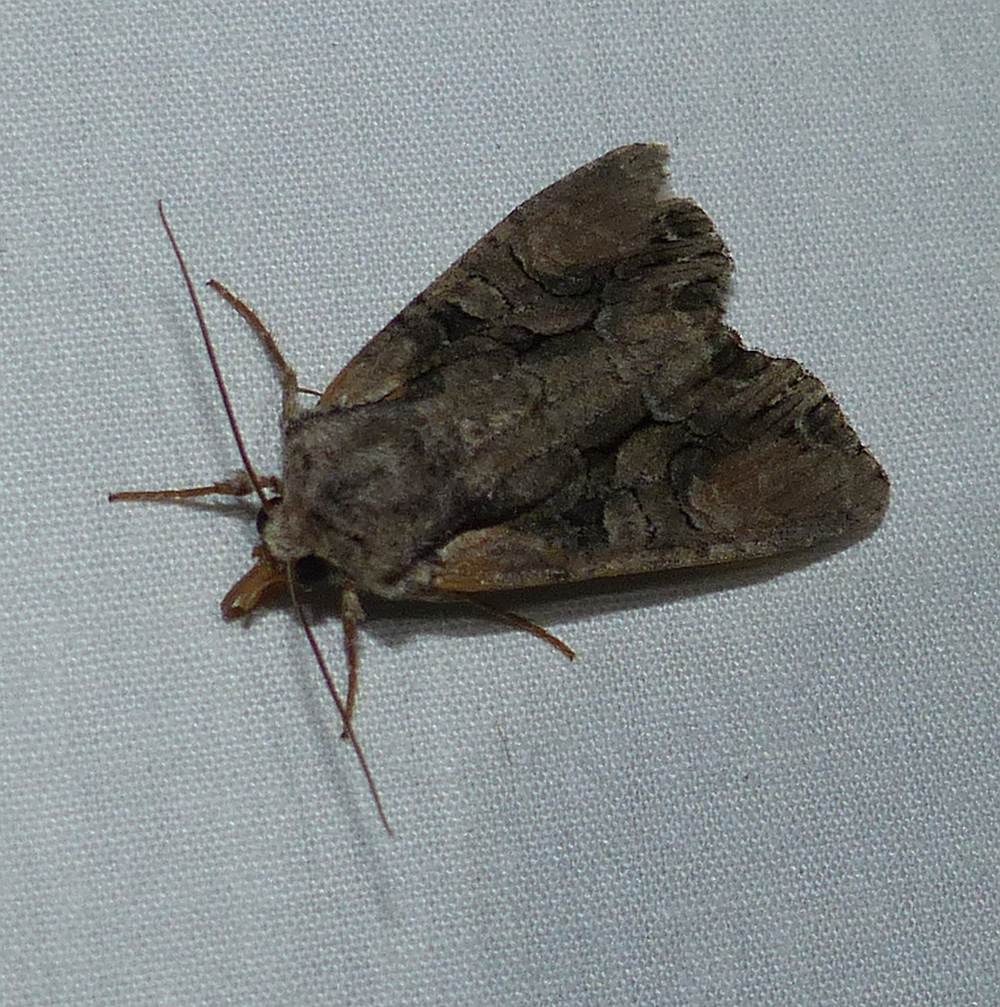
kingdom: Animalia
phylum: Arthropoda
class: Insecta
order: Lepidoptera
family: Noctuidae
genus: Lacanobia
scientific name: Lacanobia subjuncta
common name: Speckled cutworm moth
